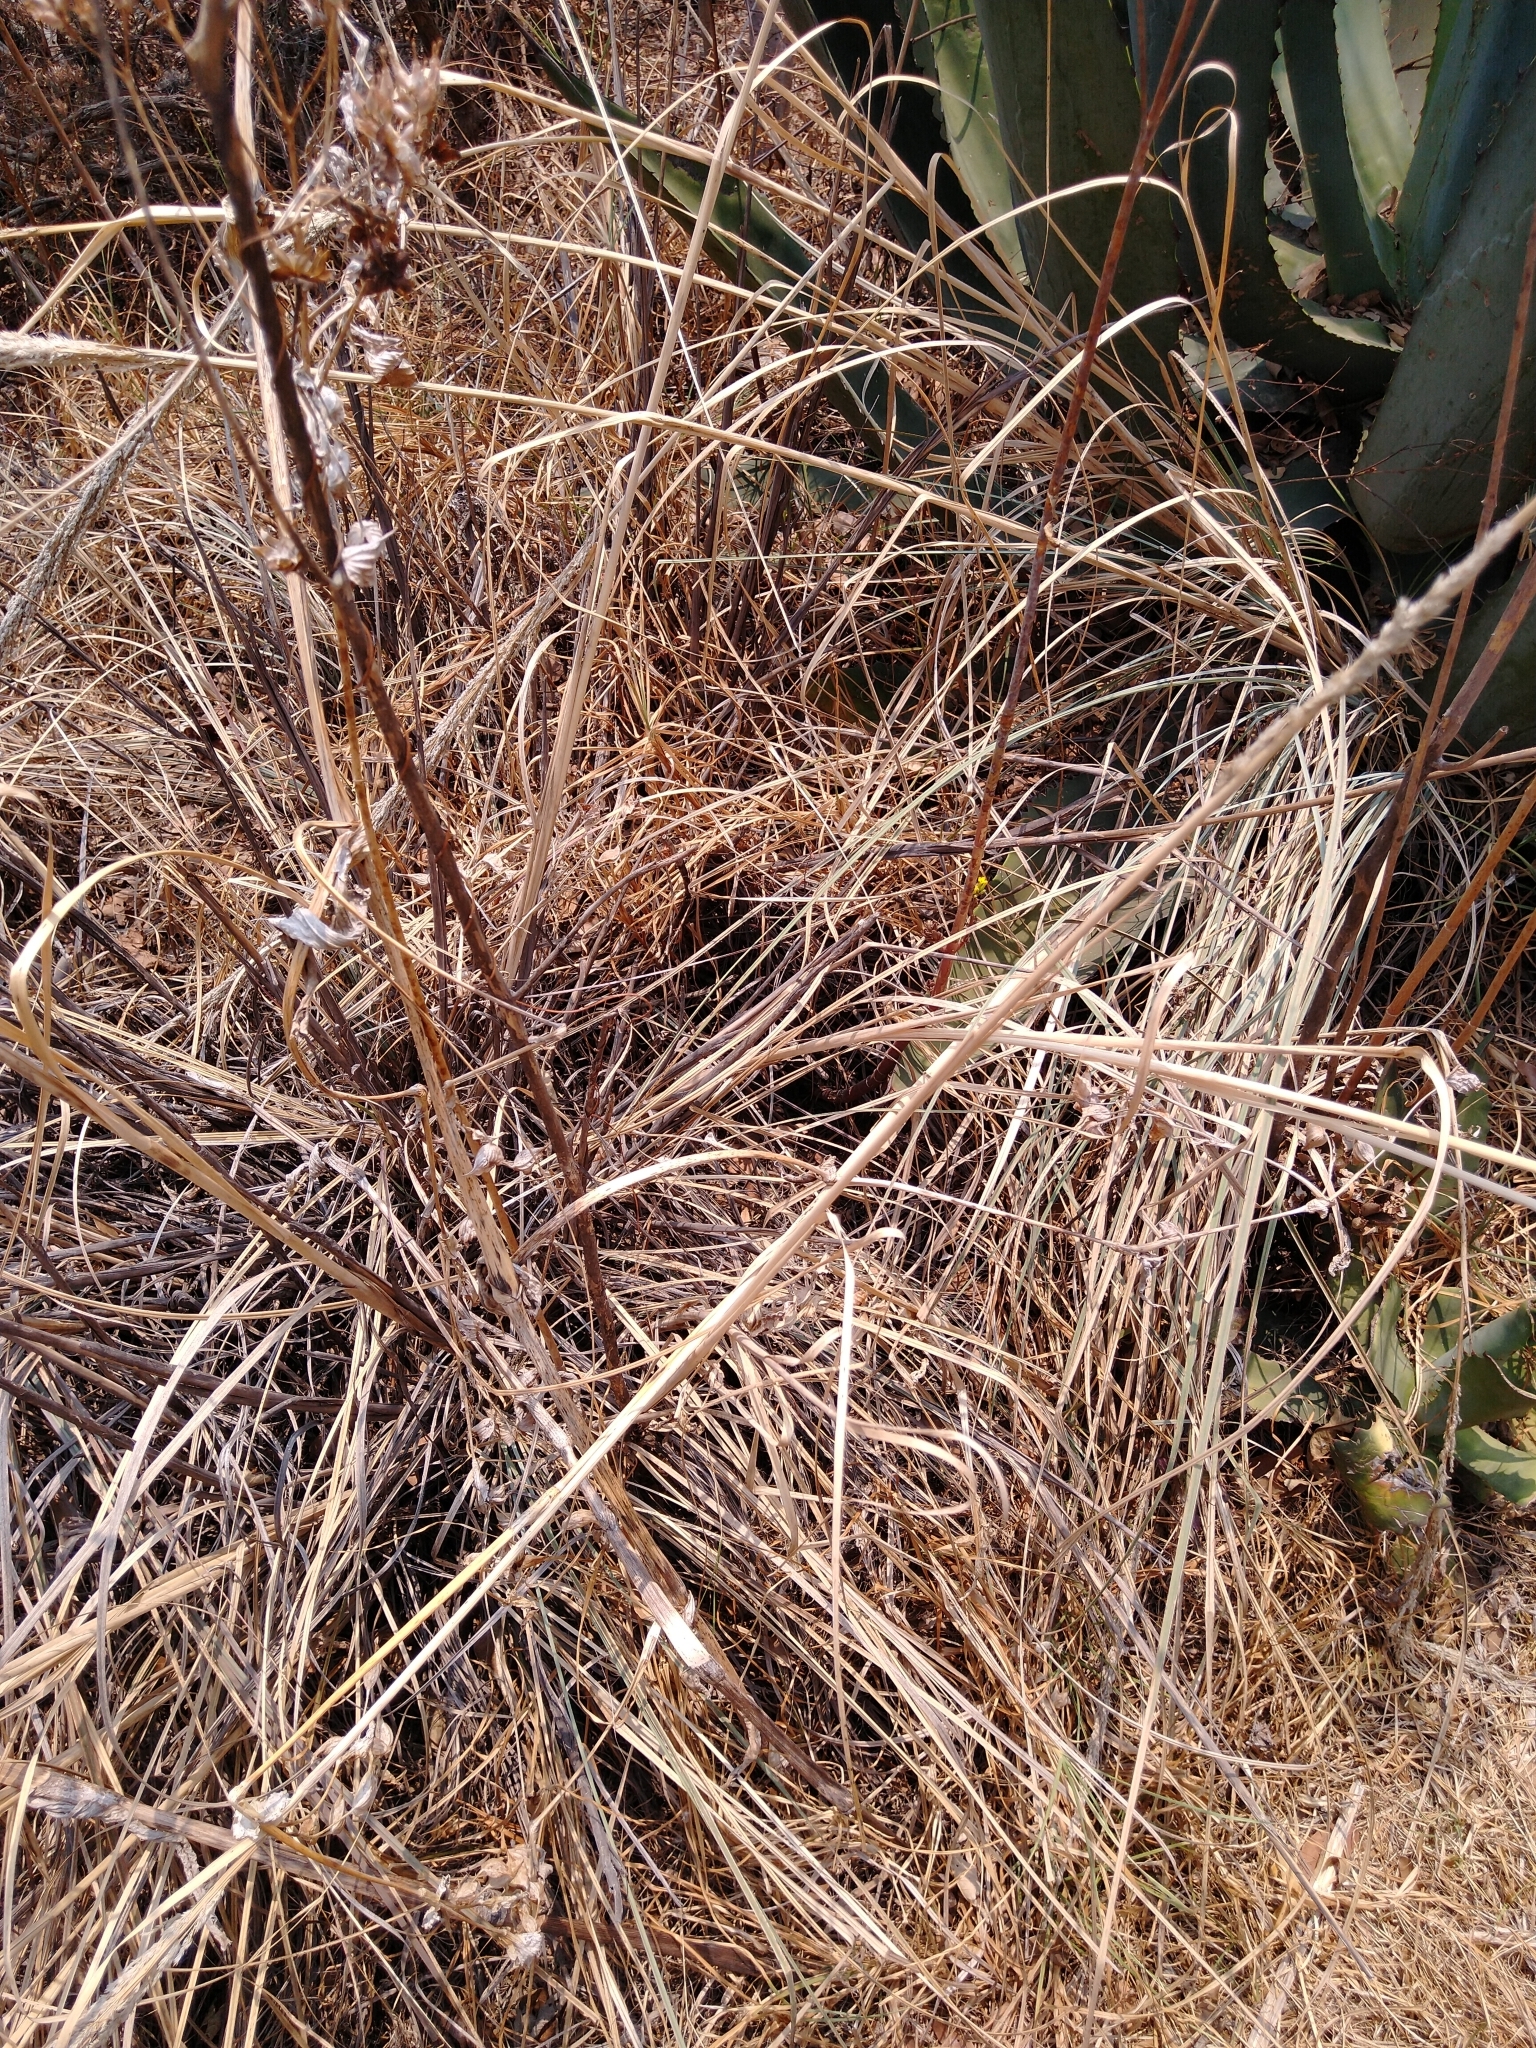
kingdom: Plantae
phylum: Tracheophyta
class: Liliopsida
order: Poales
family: Poaceae
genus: Muhlenbergia
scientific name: Muhlenbergia robusta
